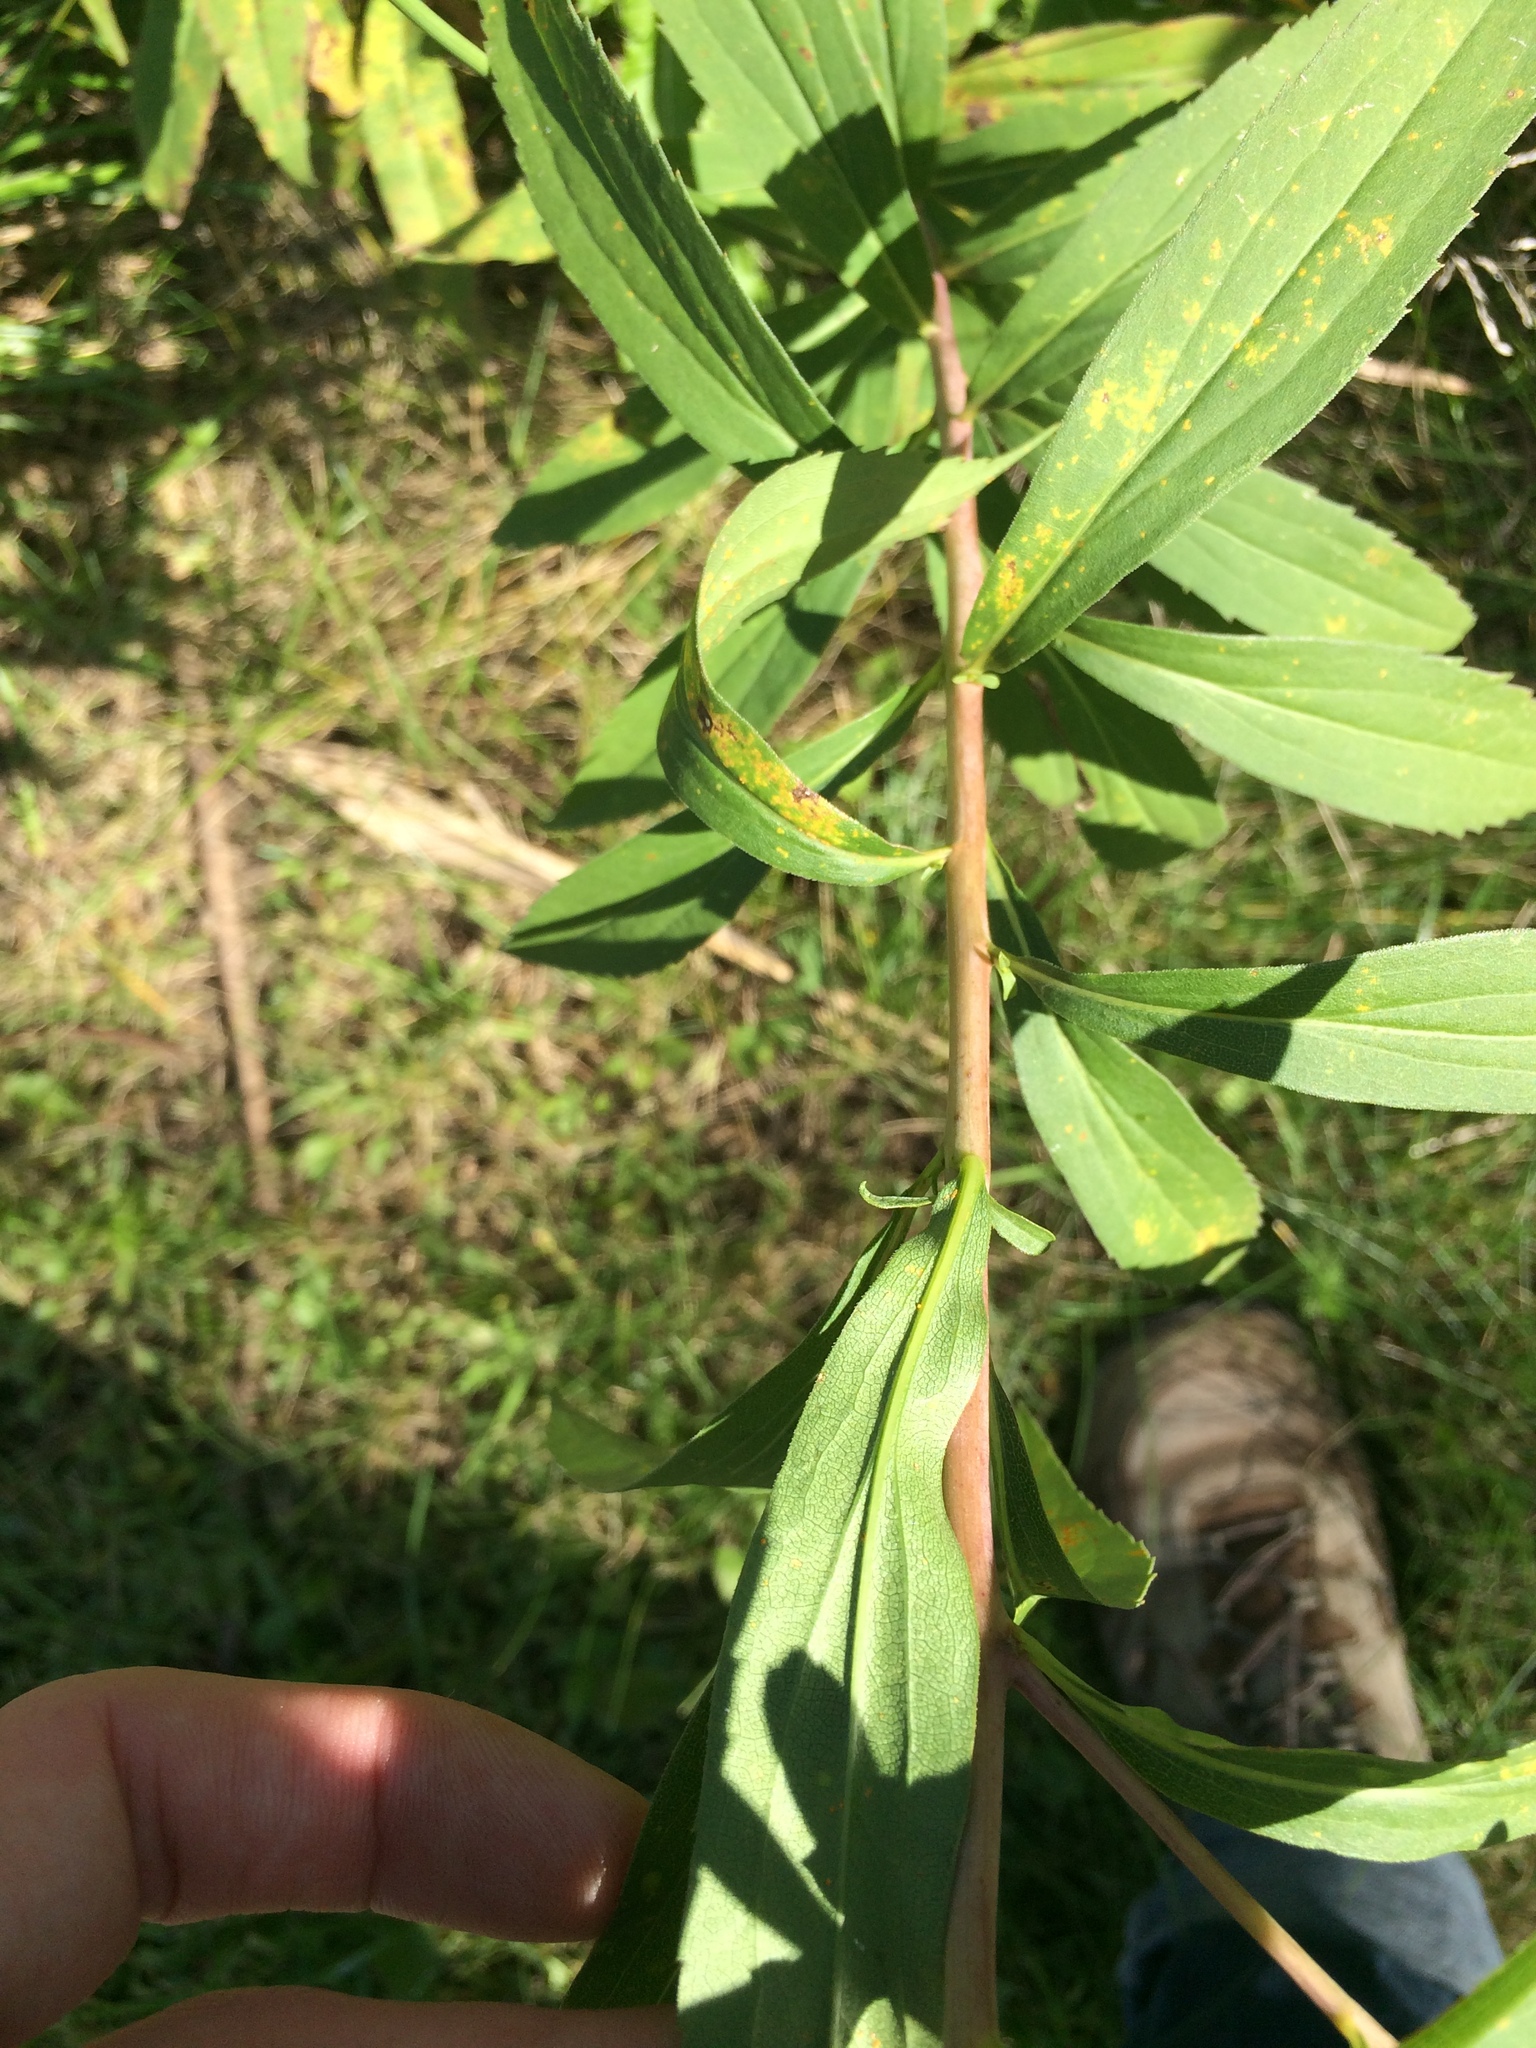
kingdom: Plantae
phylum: Tracheophyta
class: Magnoliopsida
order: Asterales
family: Asteraceae
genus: Solidago
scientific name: Solidago gigantea
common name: Giant goldenrod
